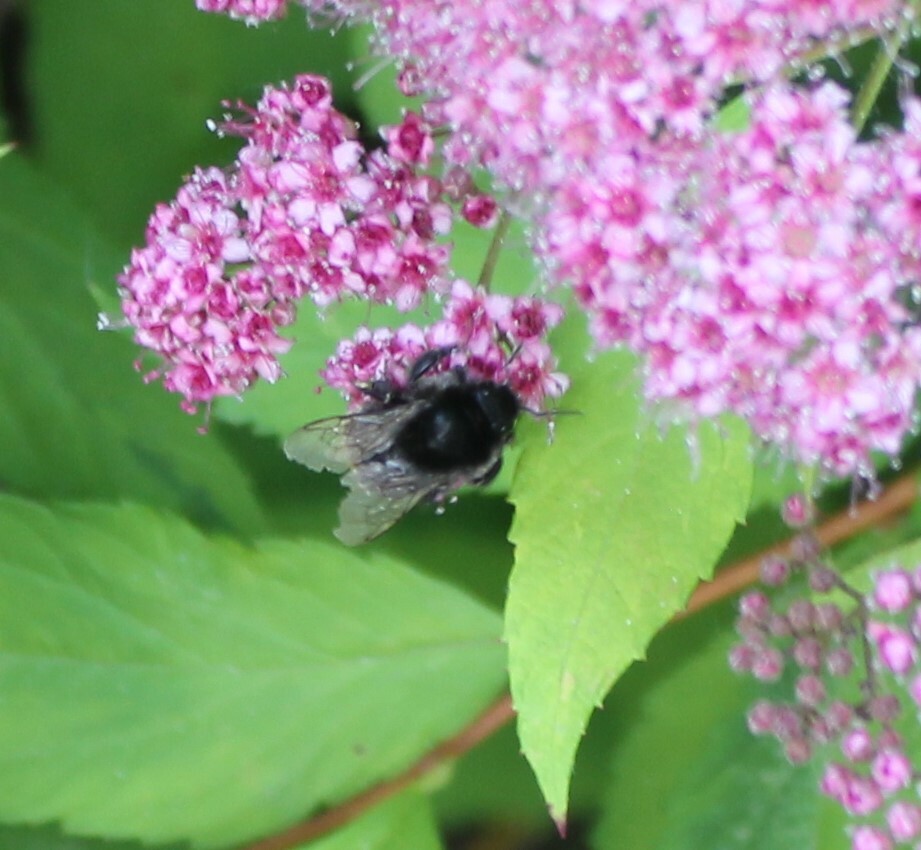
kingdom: Animalia
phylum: Arthropoda
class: Insecta
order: Hymenoptera
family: Apidae
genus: Bombus
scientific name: Bombus
